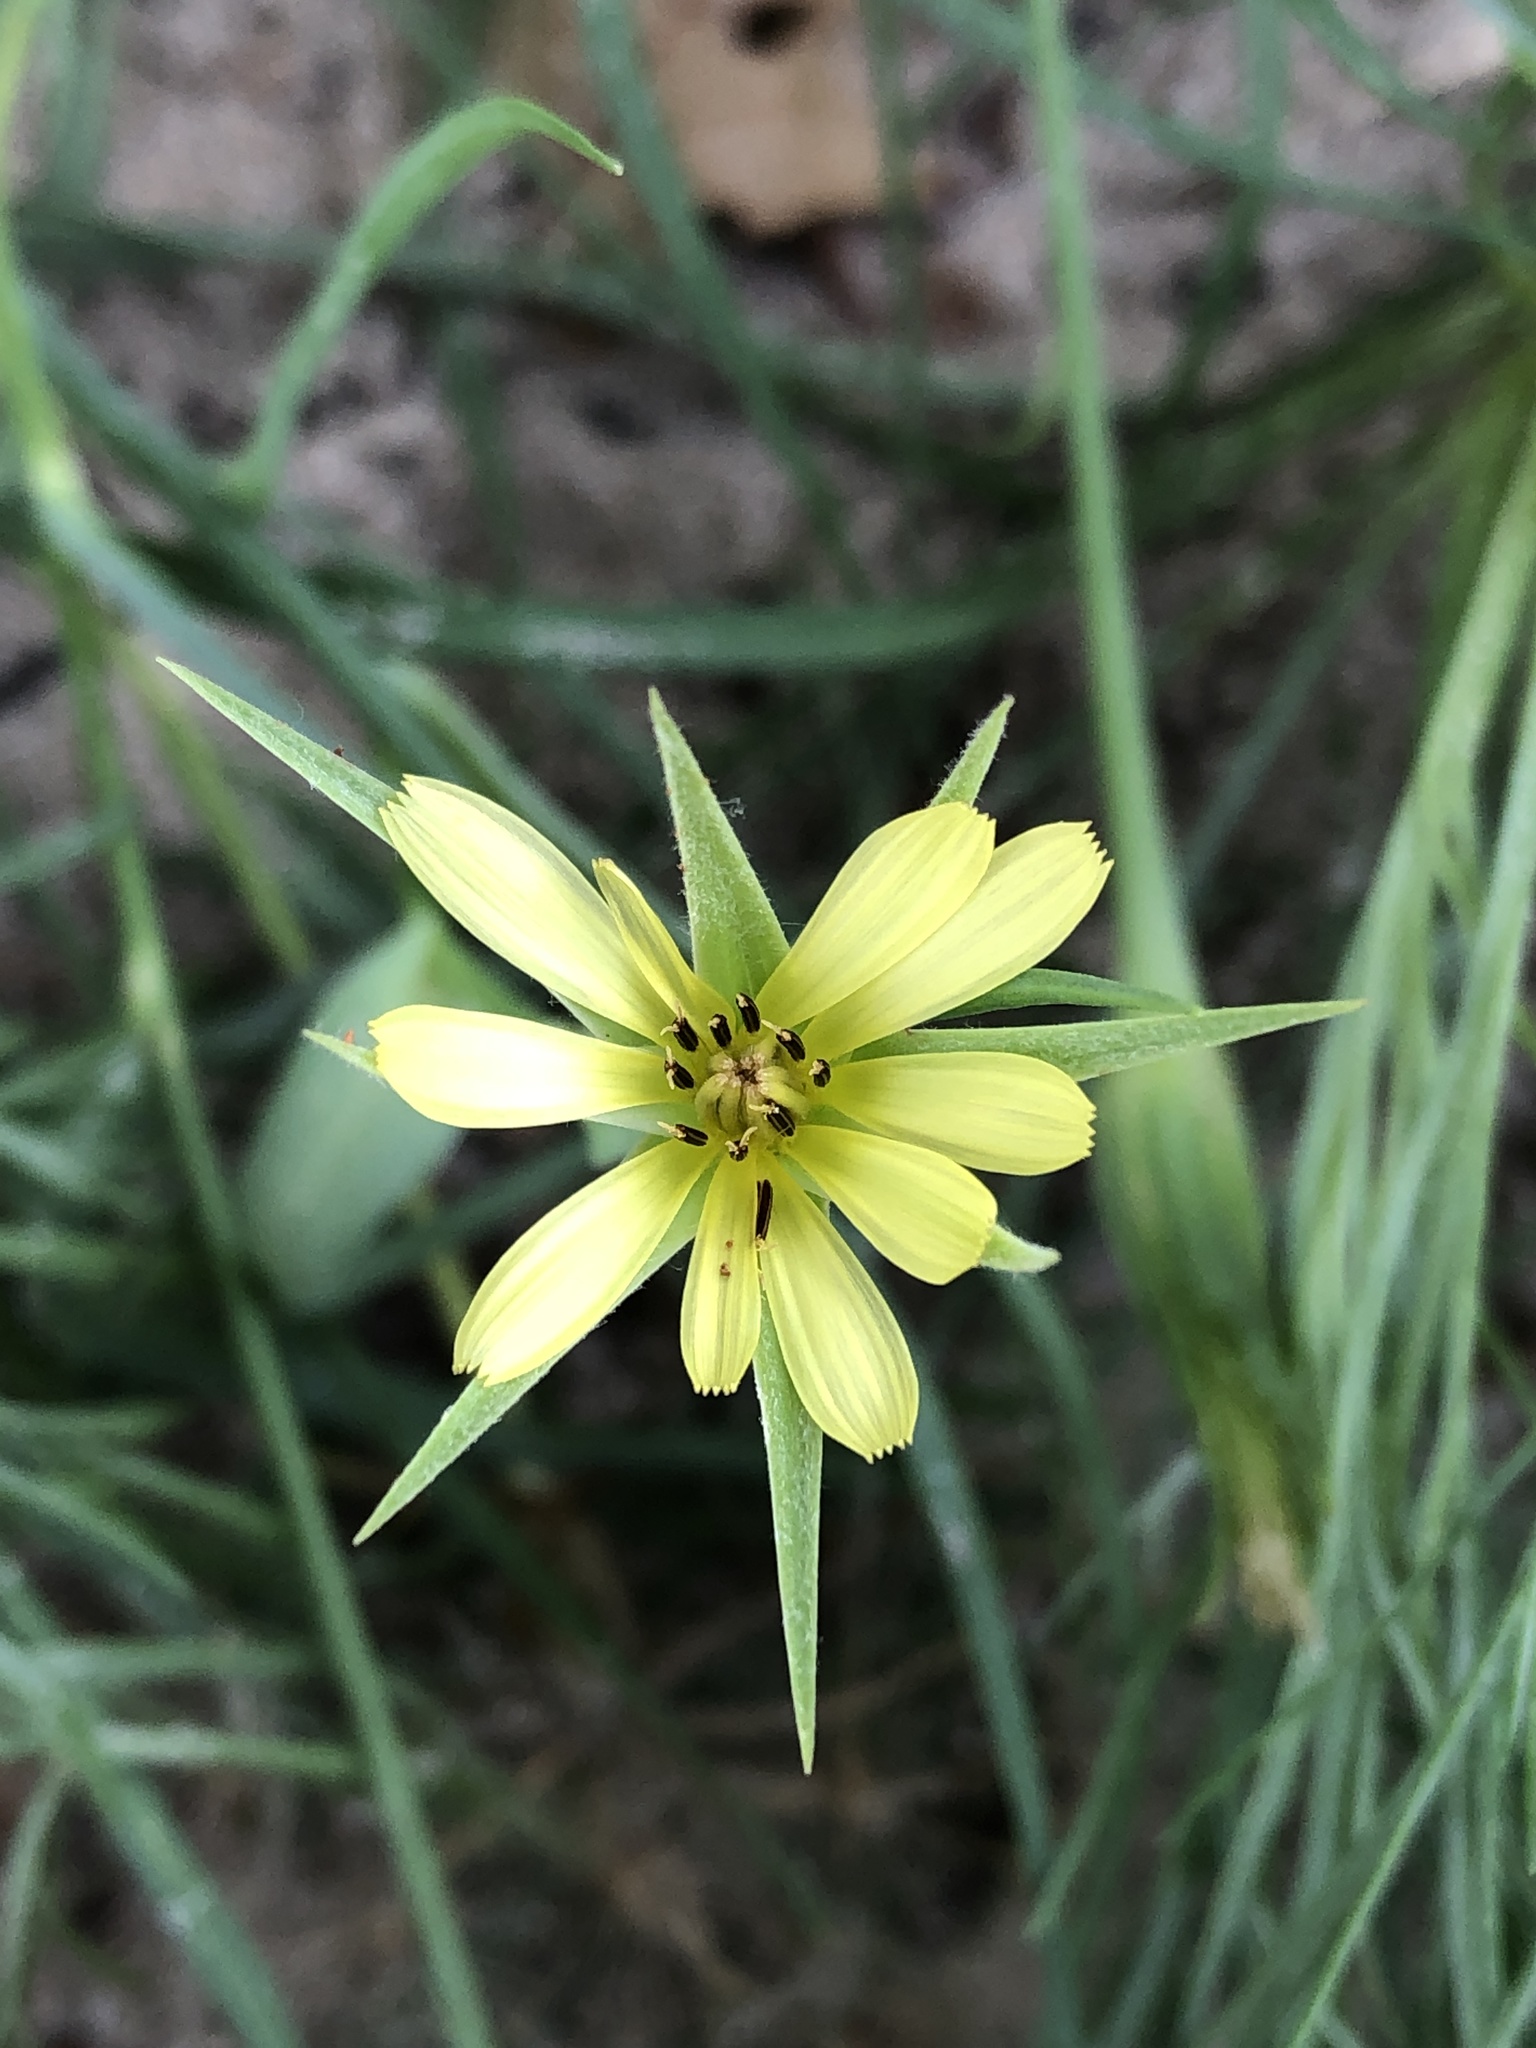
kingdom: Plantae
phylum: Tracheophyta
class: Magnoliopsida
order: Asterales
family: Asteraceae
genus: Tragopogon
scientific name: Tragopogon dubius
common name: Yellow salsify
